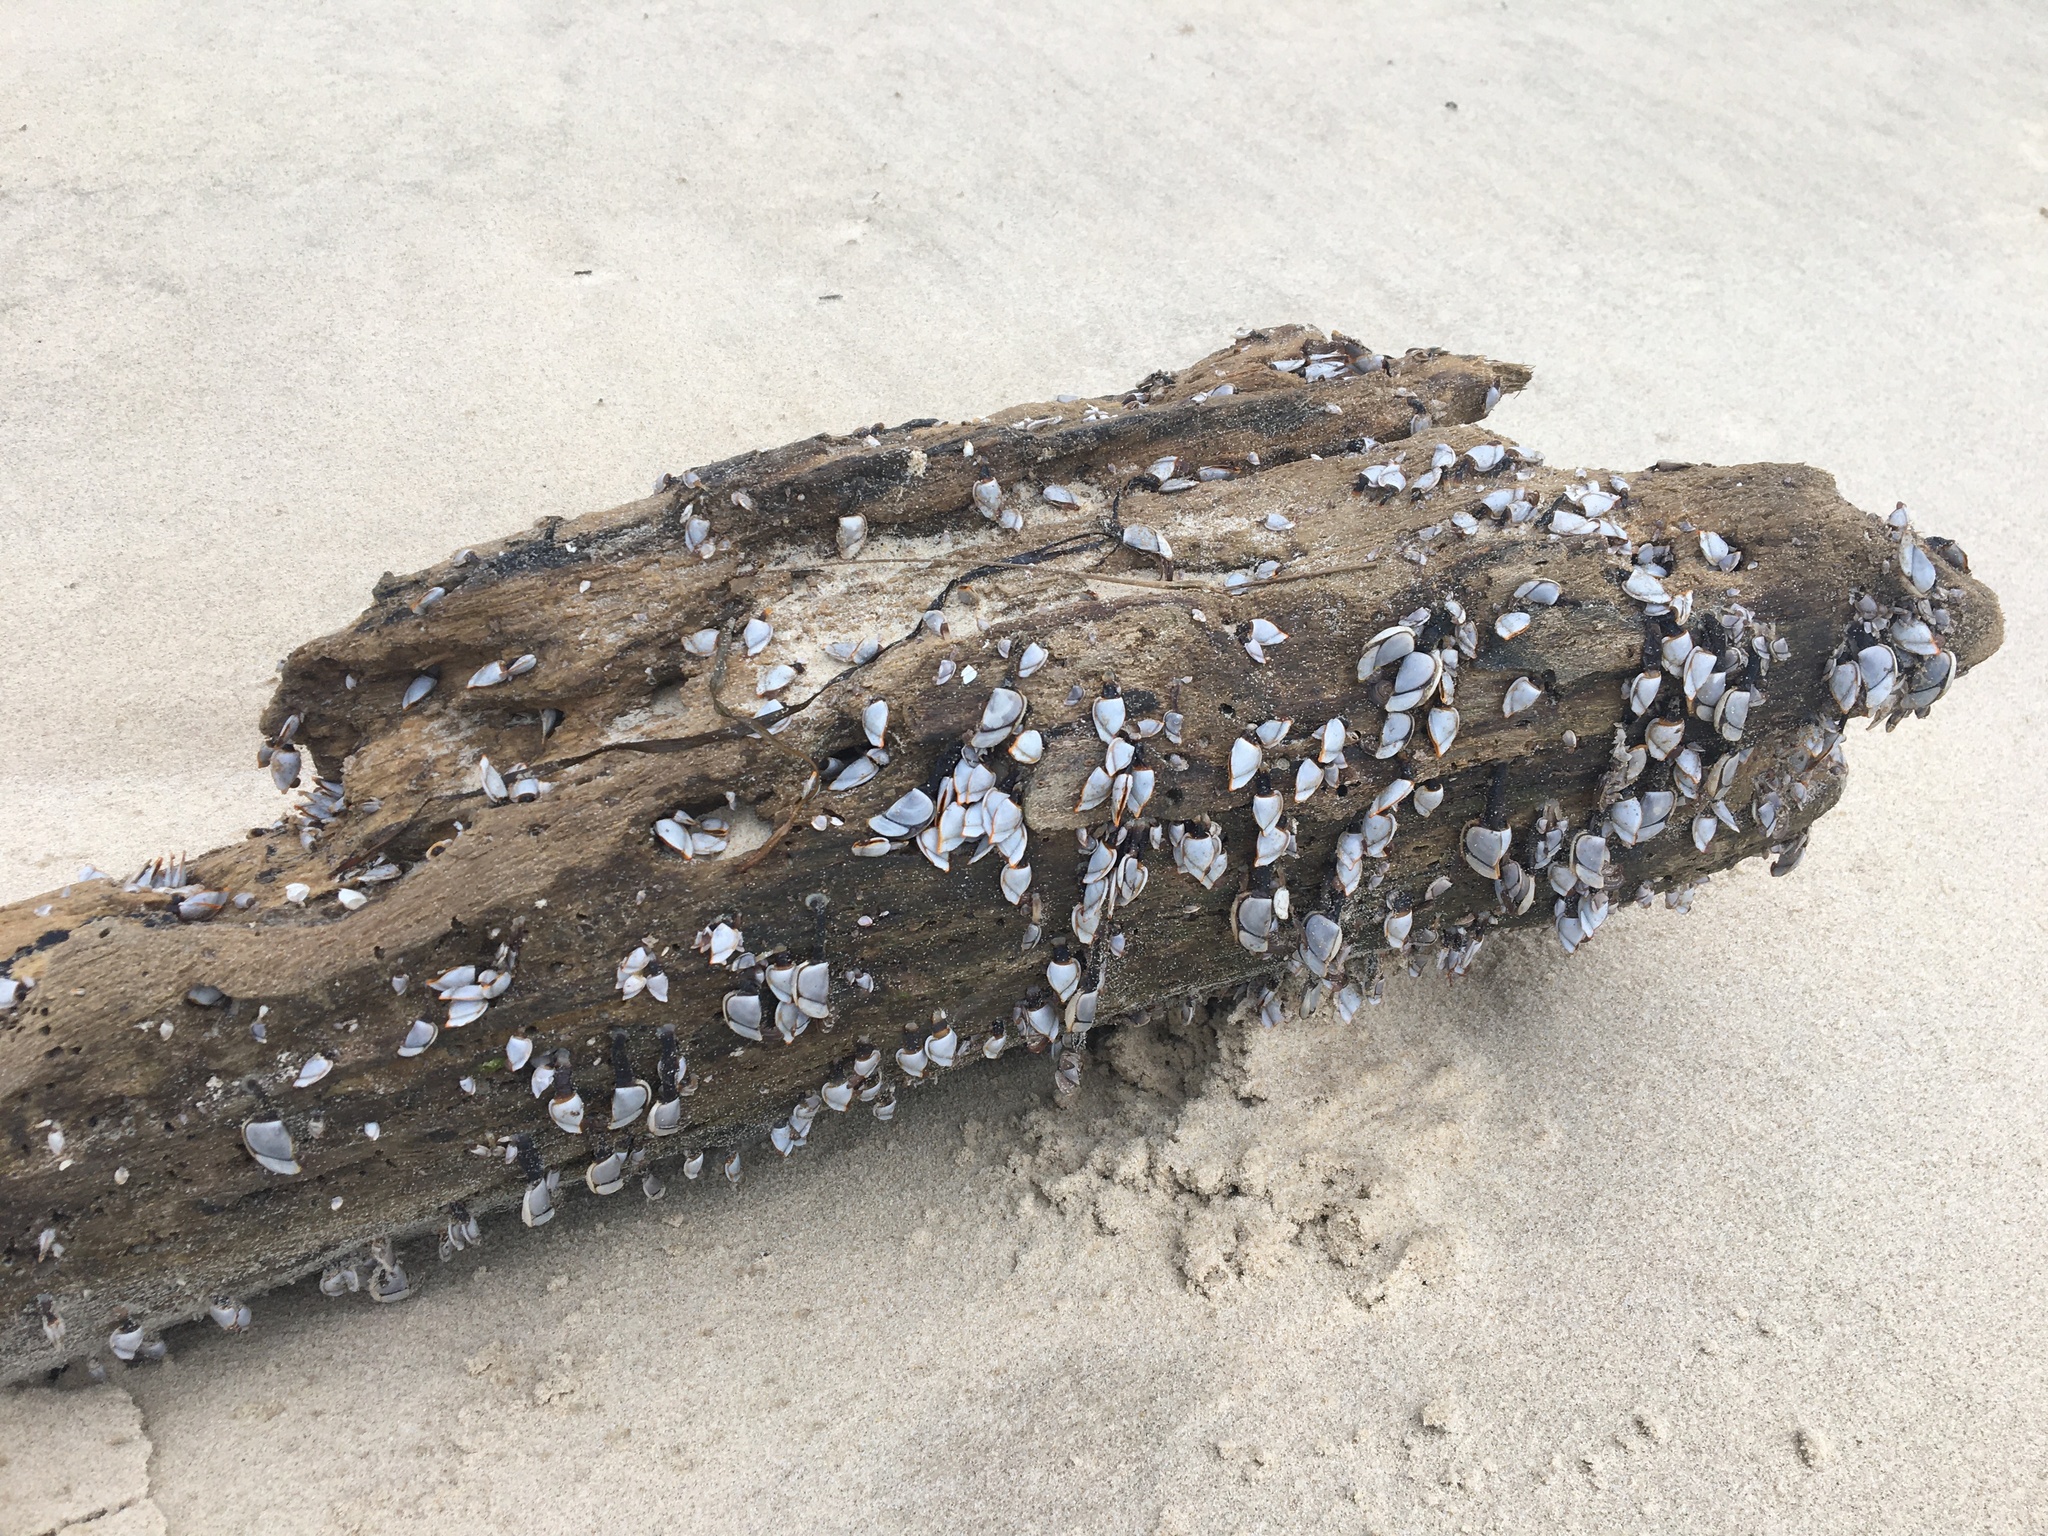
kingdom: Animalia
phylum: Arthropoda
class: Maxillopoda
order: Pedunculata
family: Lepadidae
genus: Lepas
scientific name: Lepas anserifera
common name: Goose barnacle
